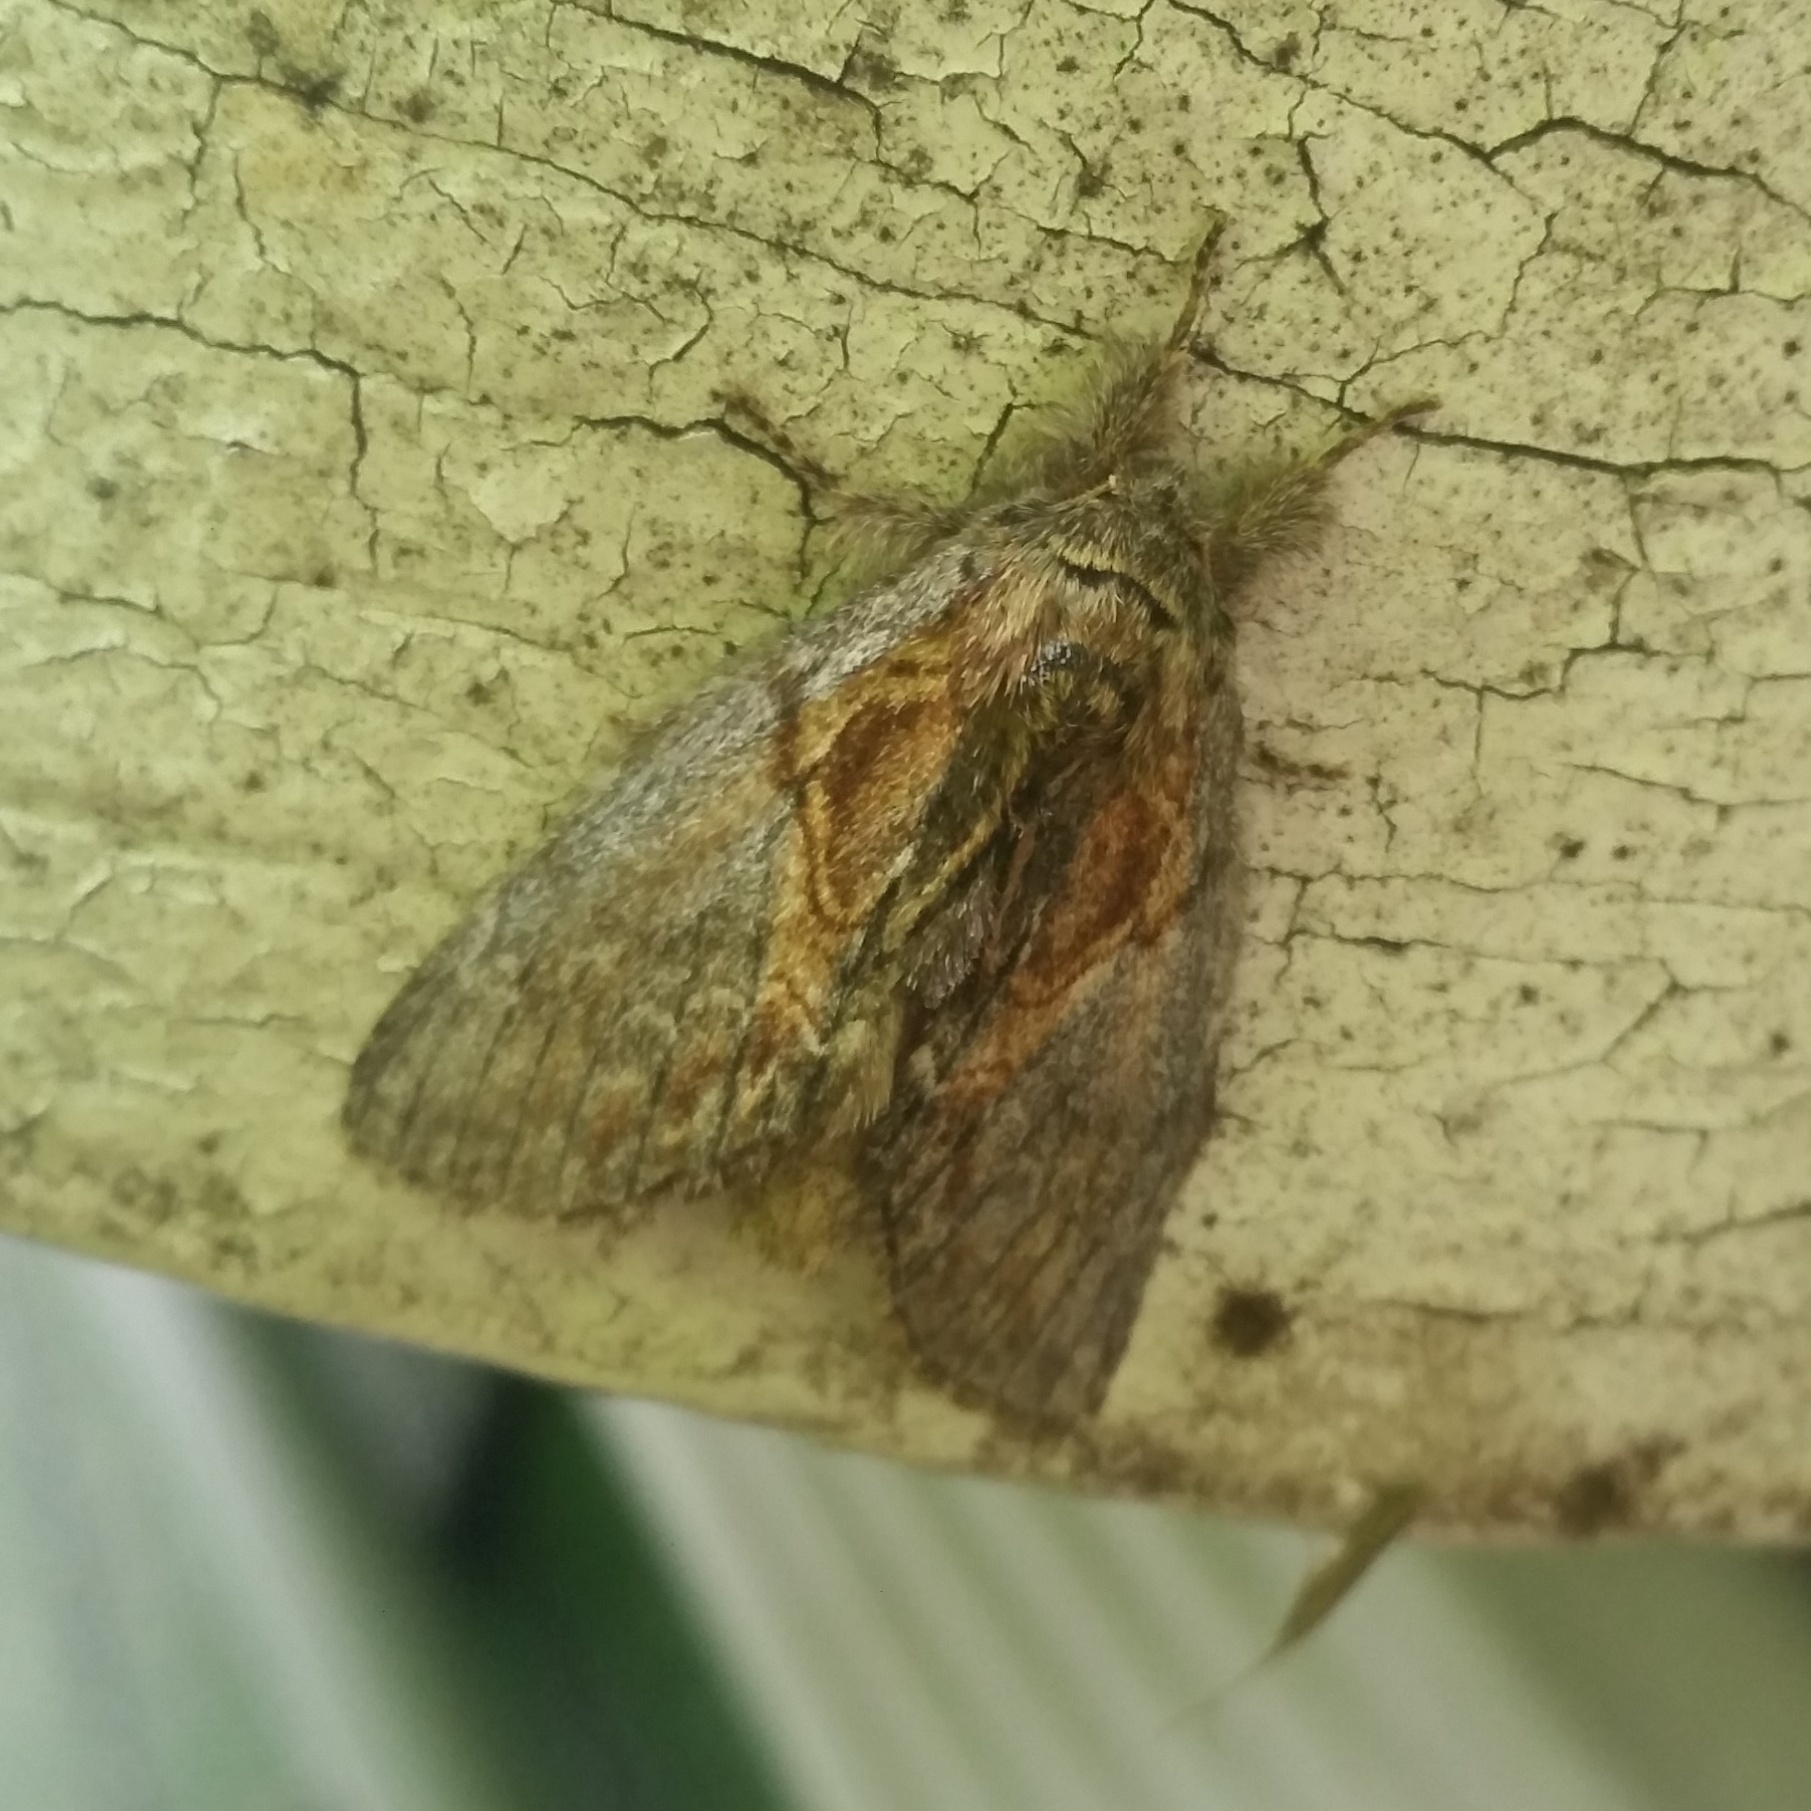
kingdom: Animalia
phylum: Arthropoda
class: Insecta
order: Lepidoptera
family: Notodontidae
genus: Peridea
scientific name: Peridea basitriens
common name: Oval-based prominent
